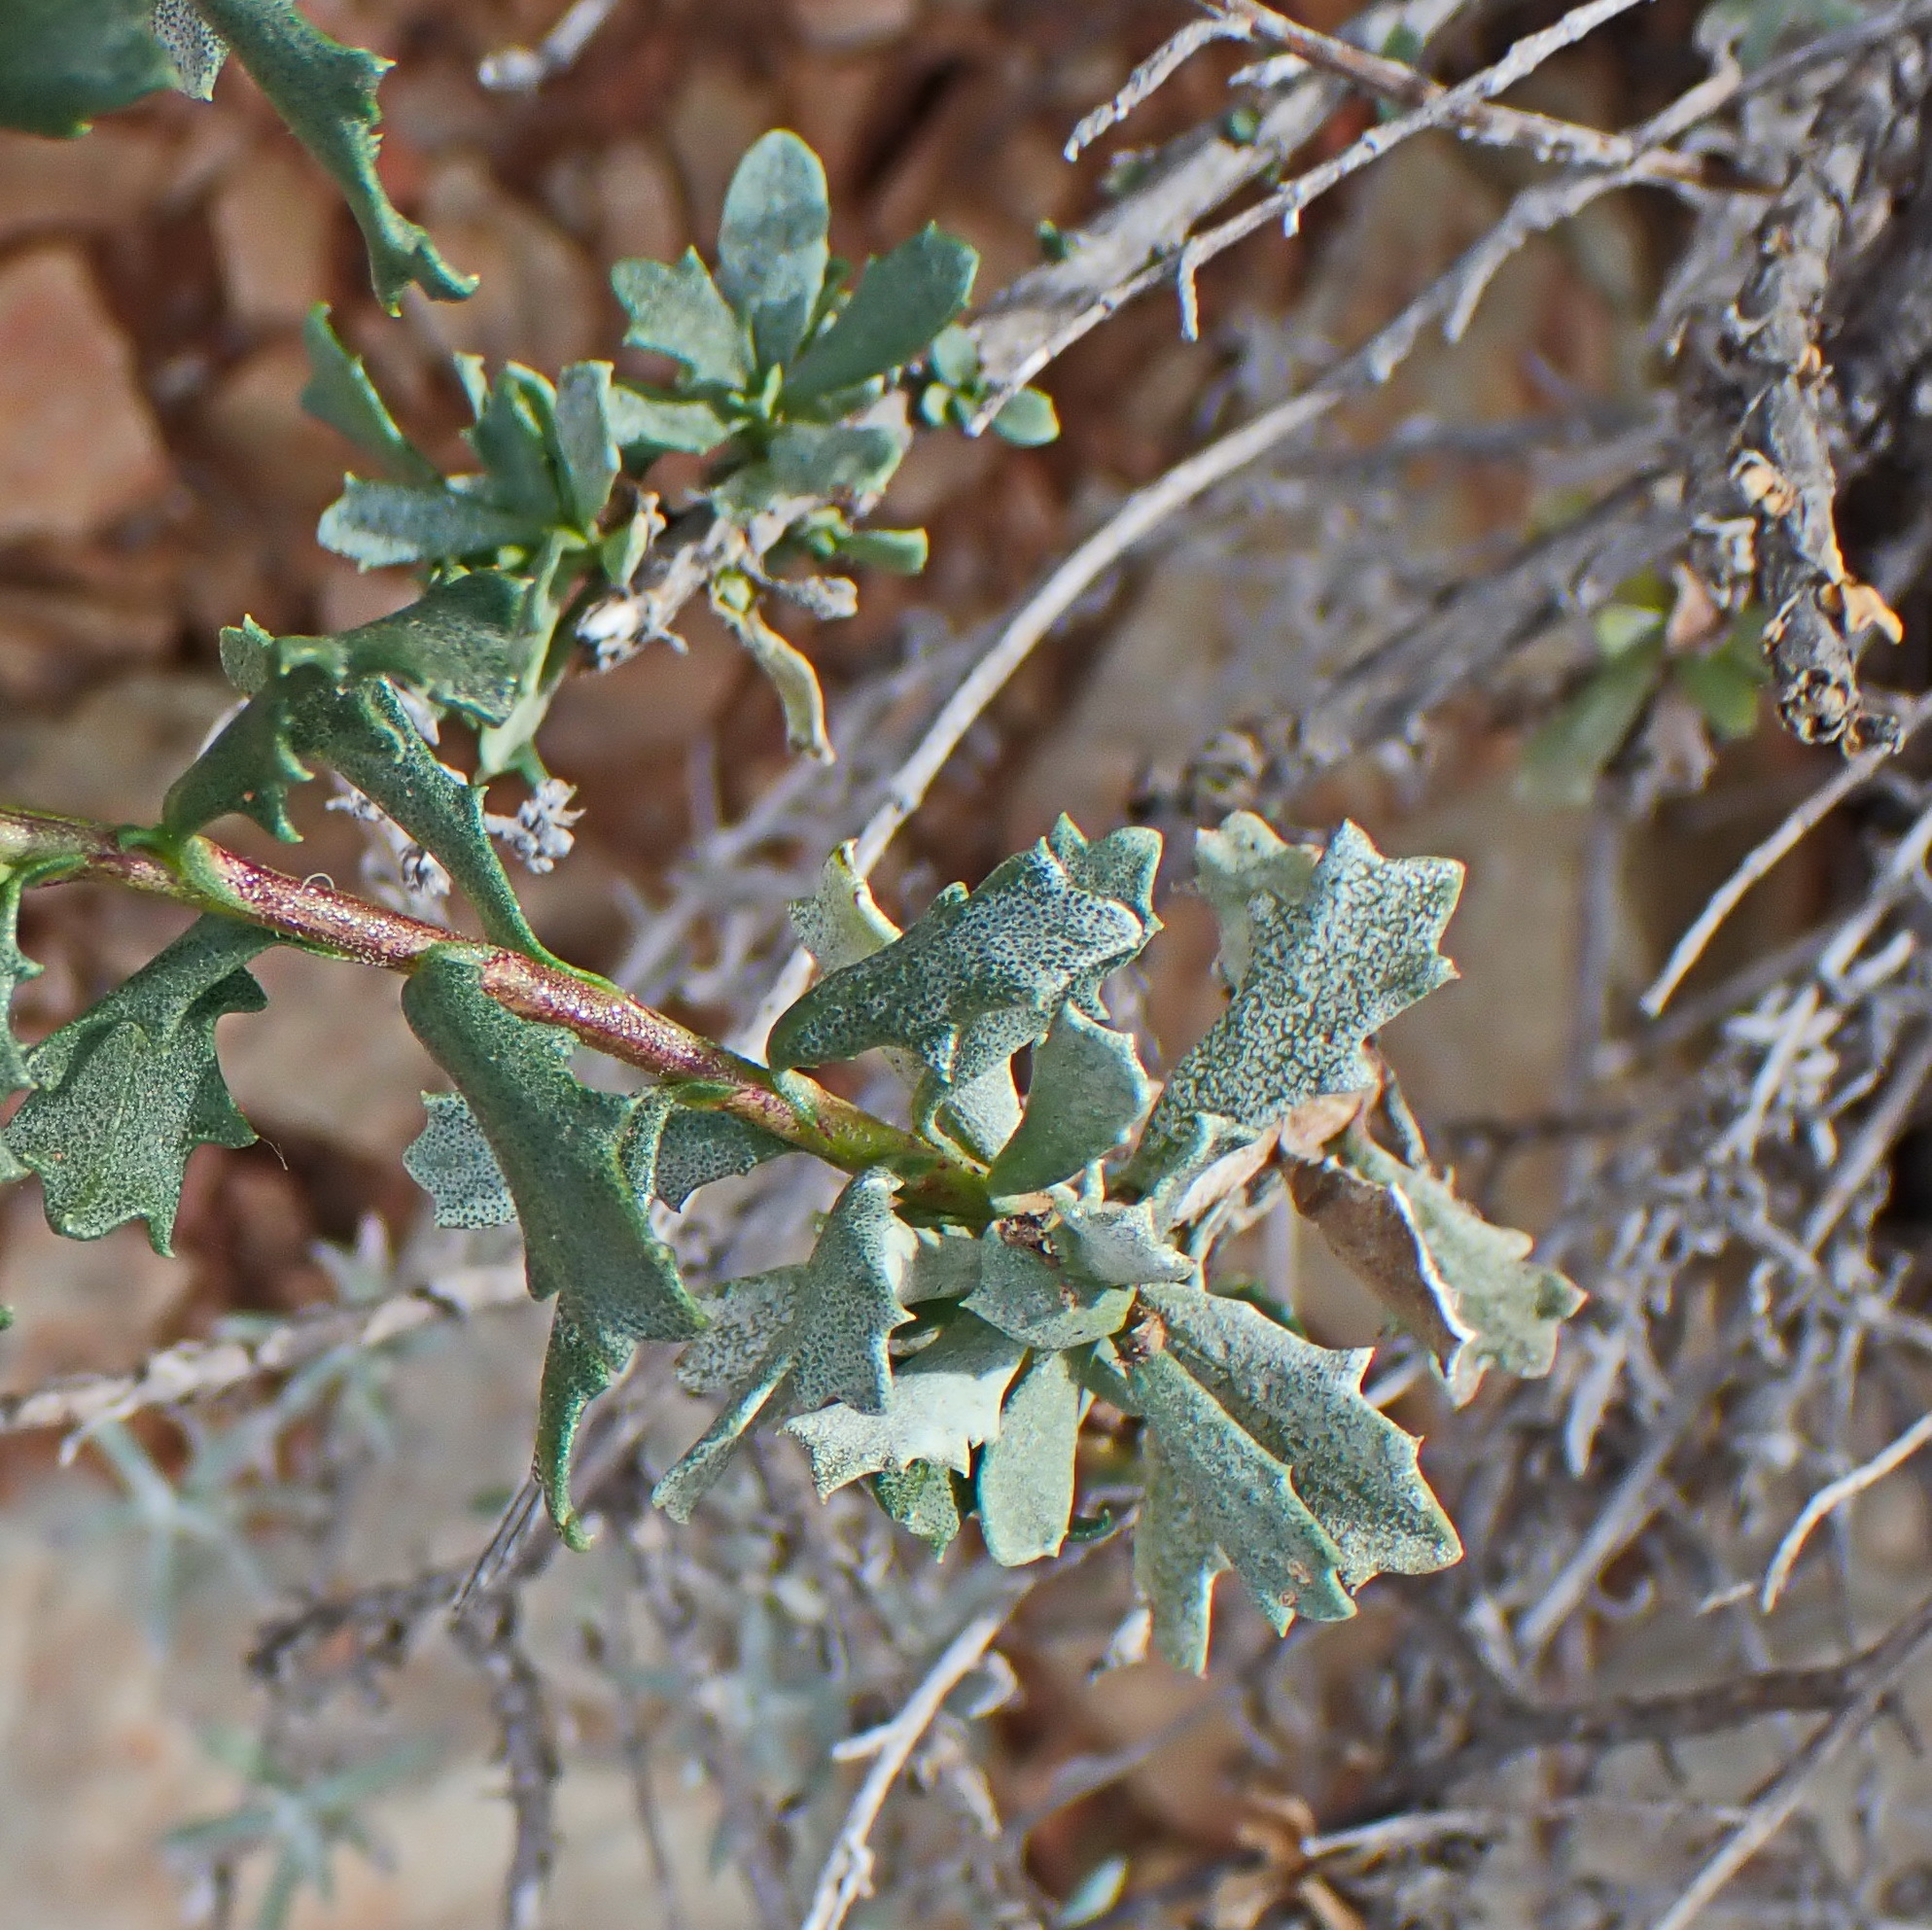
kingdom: Plantae
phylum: Tracheophyta
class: Magnoliopsida
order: Asterales
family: Asteraceae
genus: Berkheya
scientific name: Berkheya cuneata
